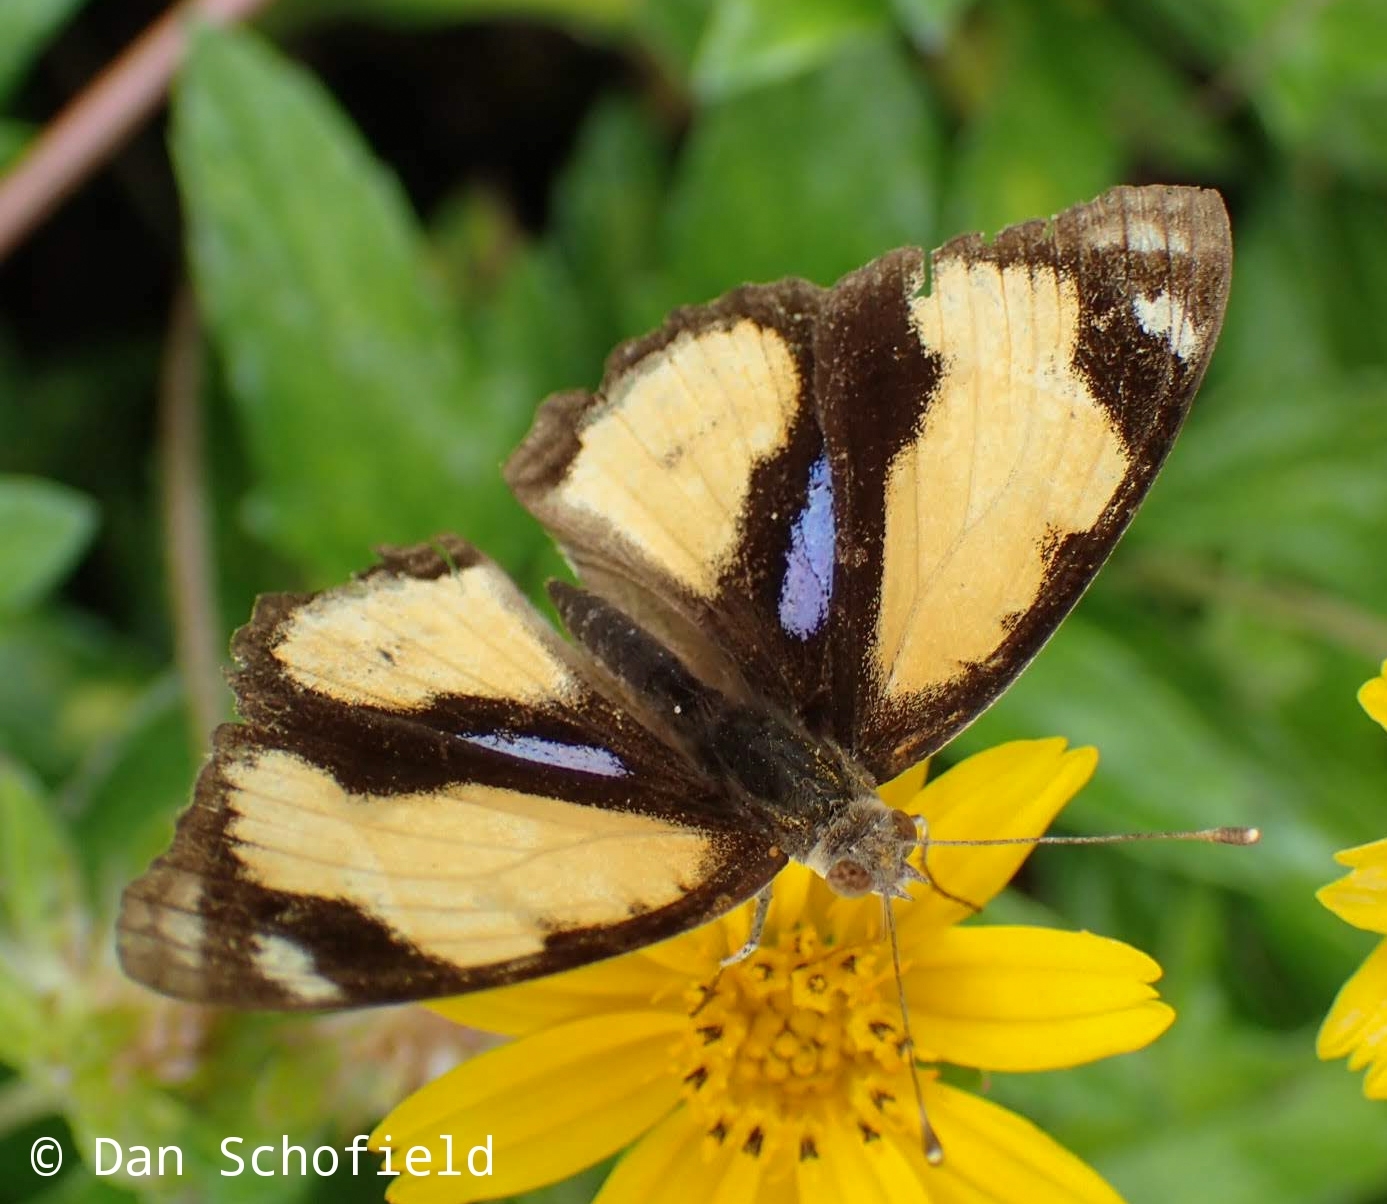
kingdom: Animalia
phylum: Arthropoda
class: Insecta
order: Lepidoptera
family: Nymphalidae
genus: Junonia
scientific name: Junonia hierta
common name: Yellow pansy
